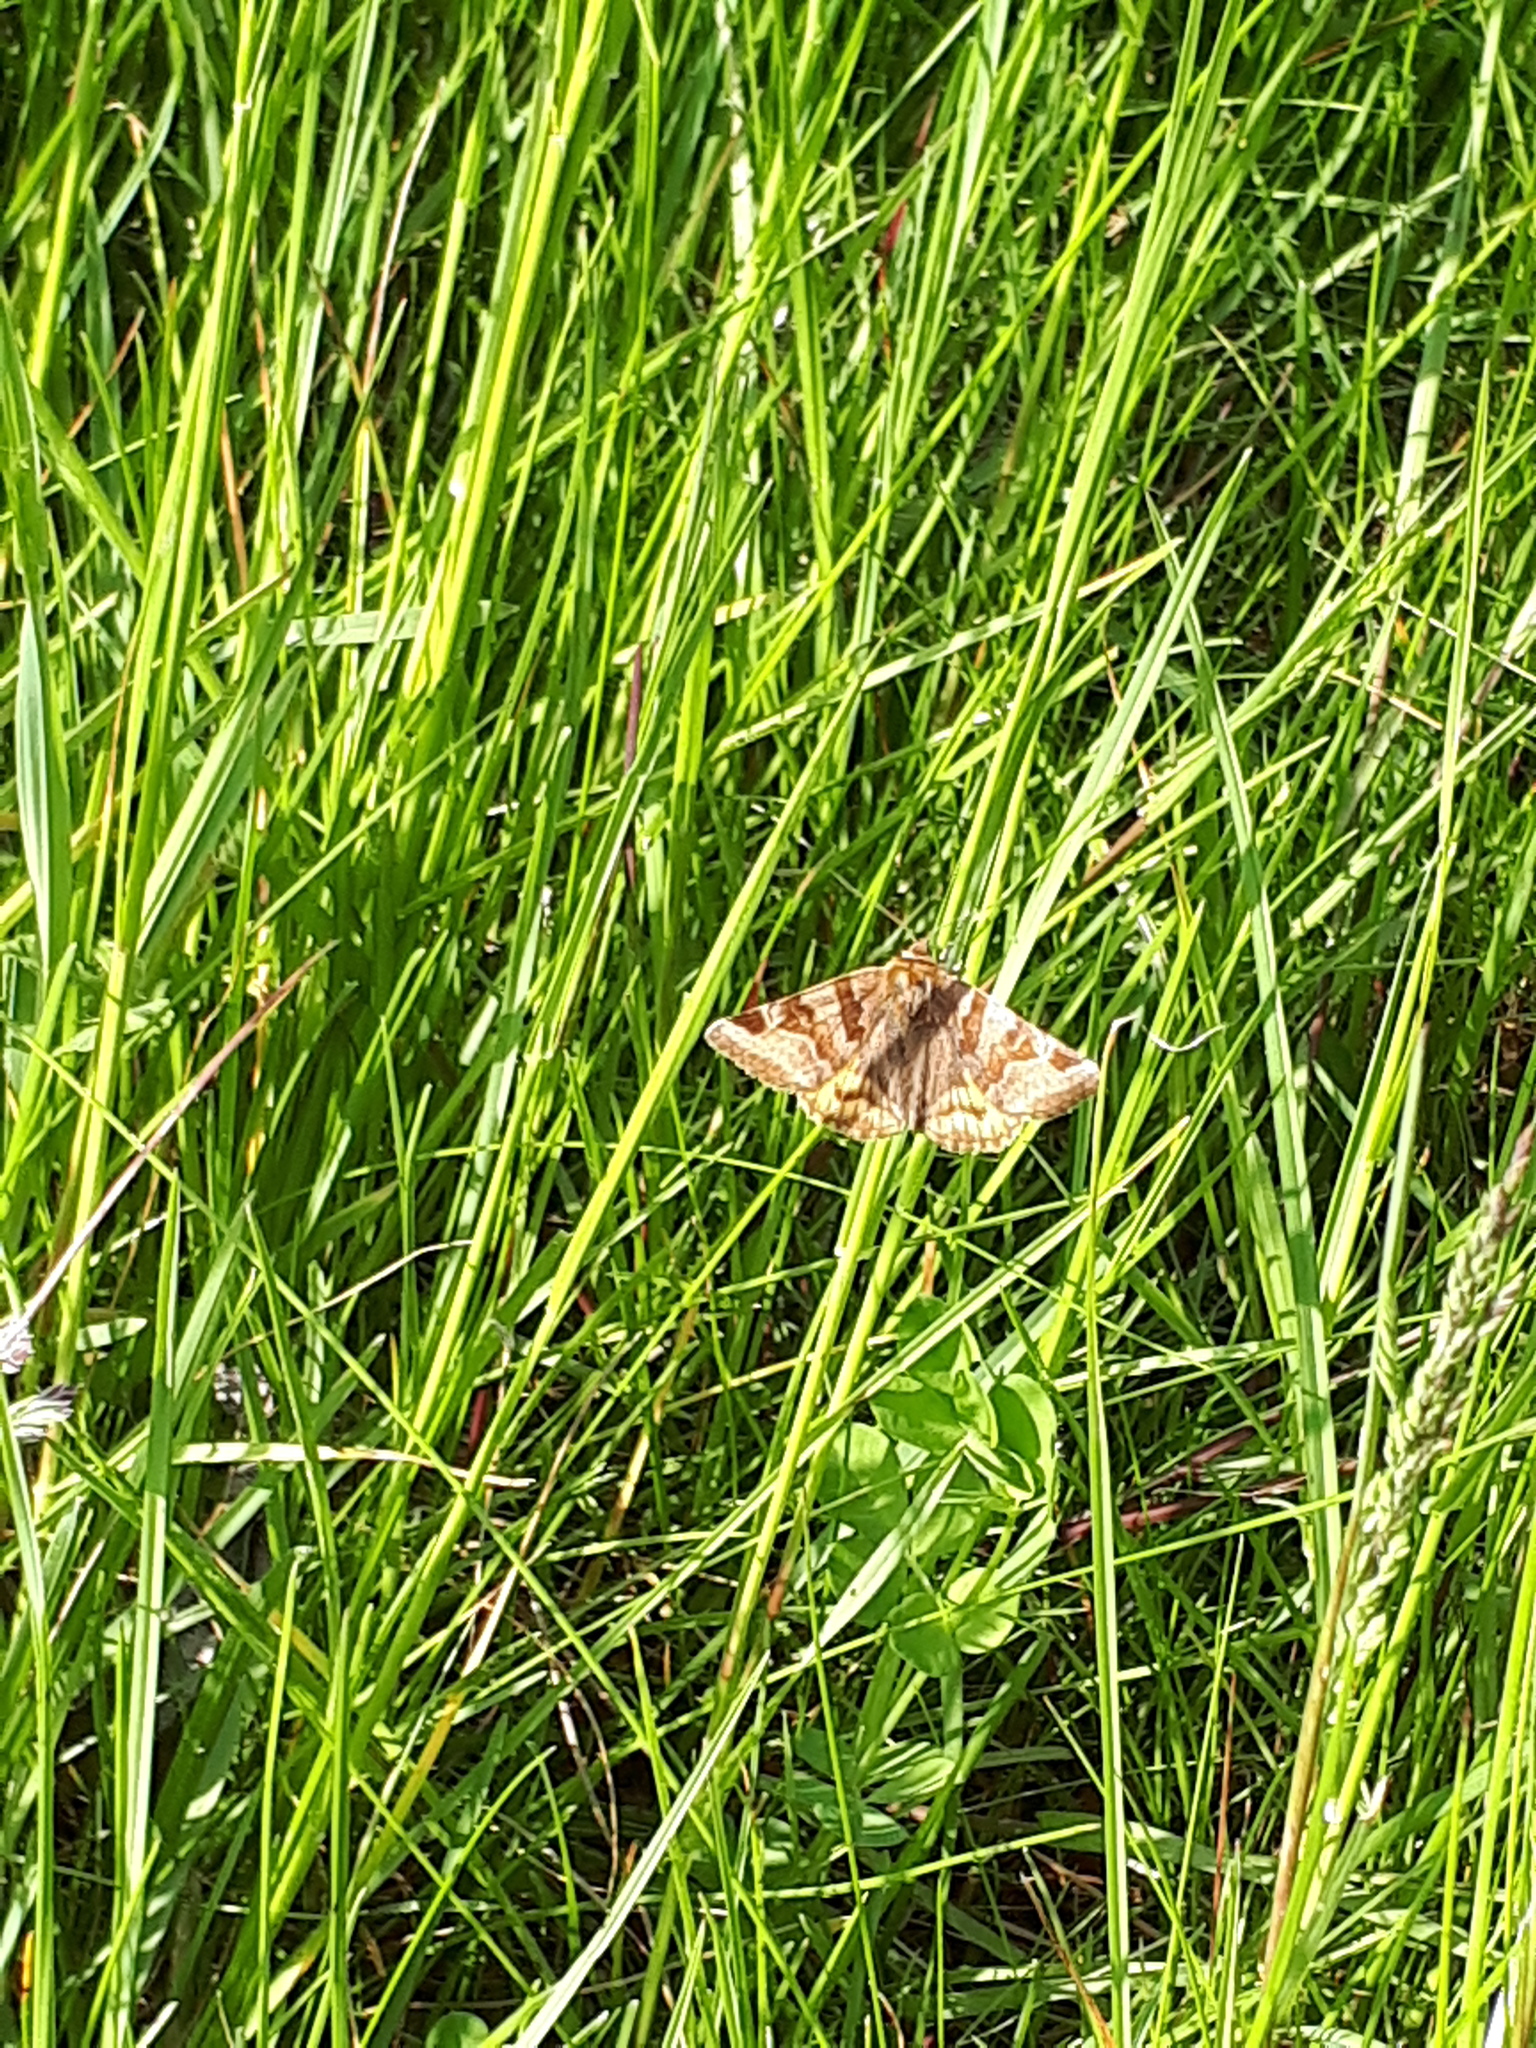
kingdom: Animalia
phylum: Arthropoda
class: Insecta
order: Lepidoptera
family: Erebidae
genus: Euclidia
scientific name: Euclidia glyphica
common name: Burnet companion
